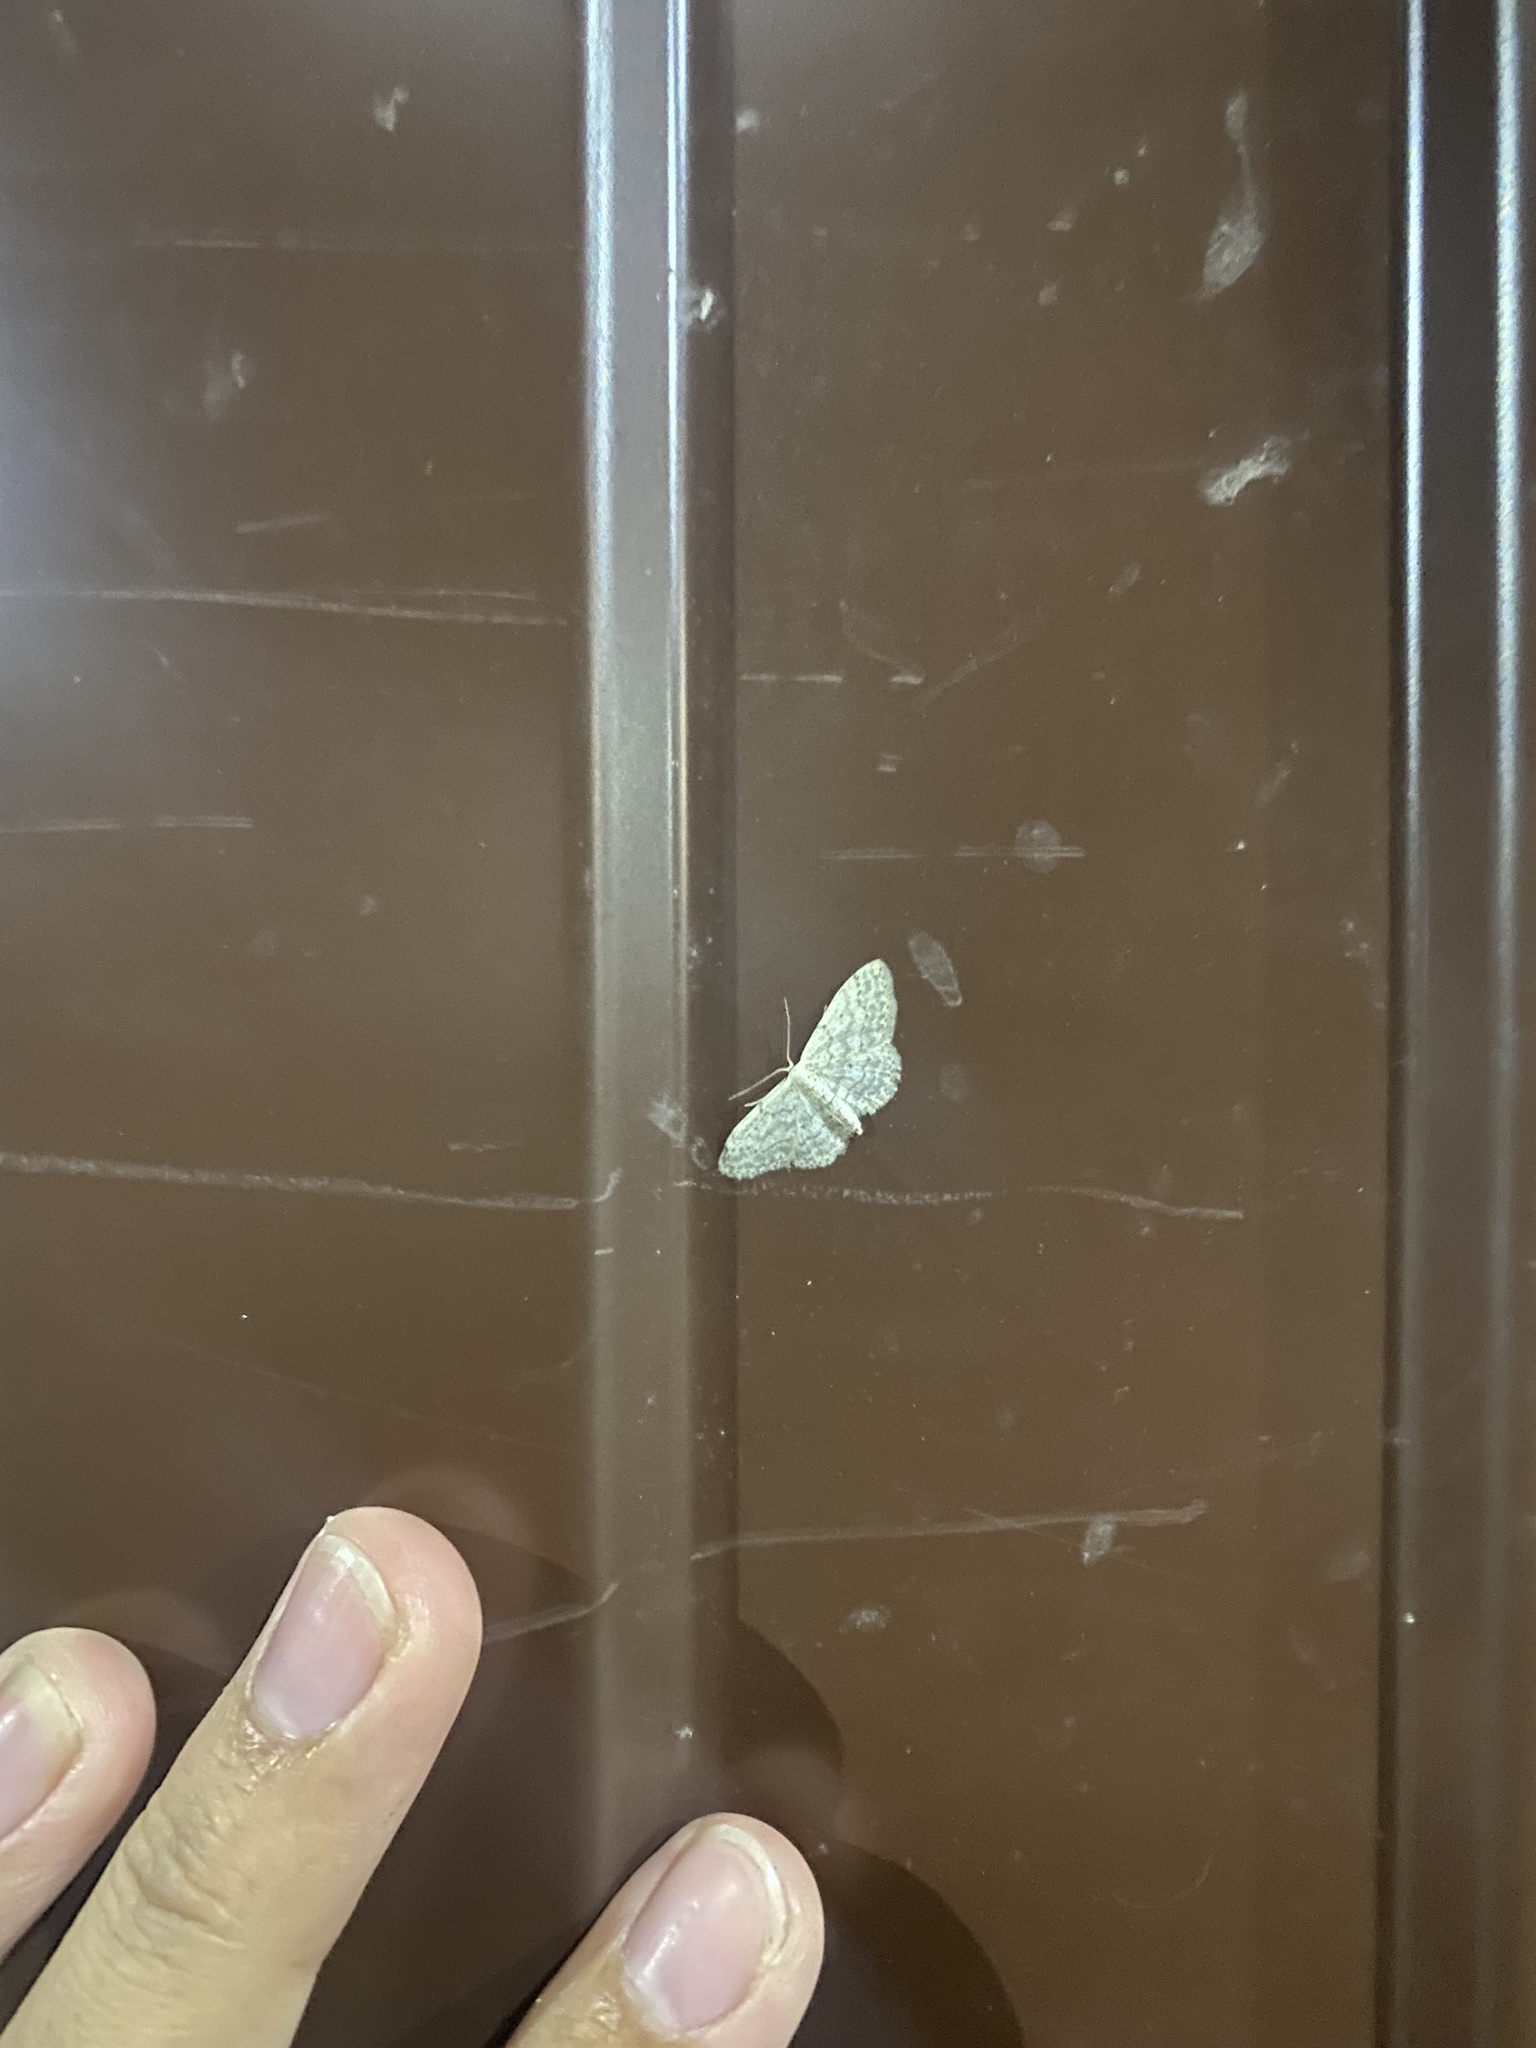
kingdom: Animalia
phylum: Arthropoda
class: Insecta
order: Lepidoptera
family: Geometridae
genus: Idaea
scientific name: Idaea seriata
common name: Small dusty wave
